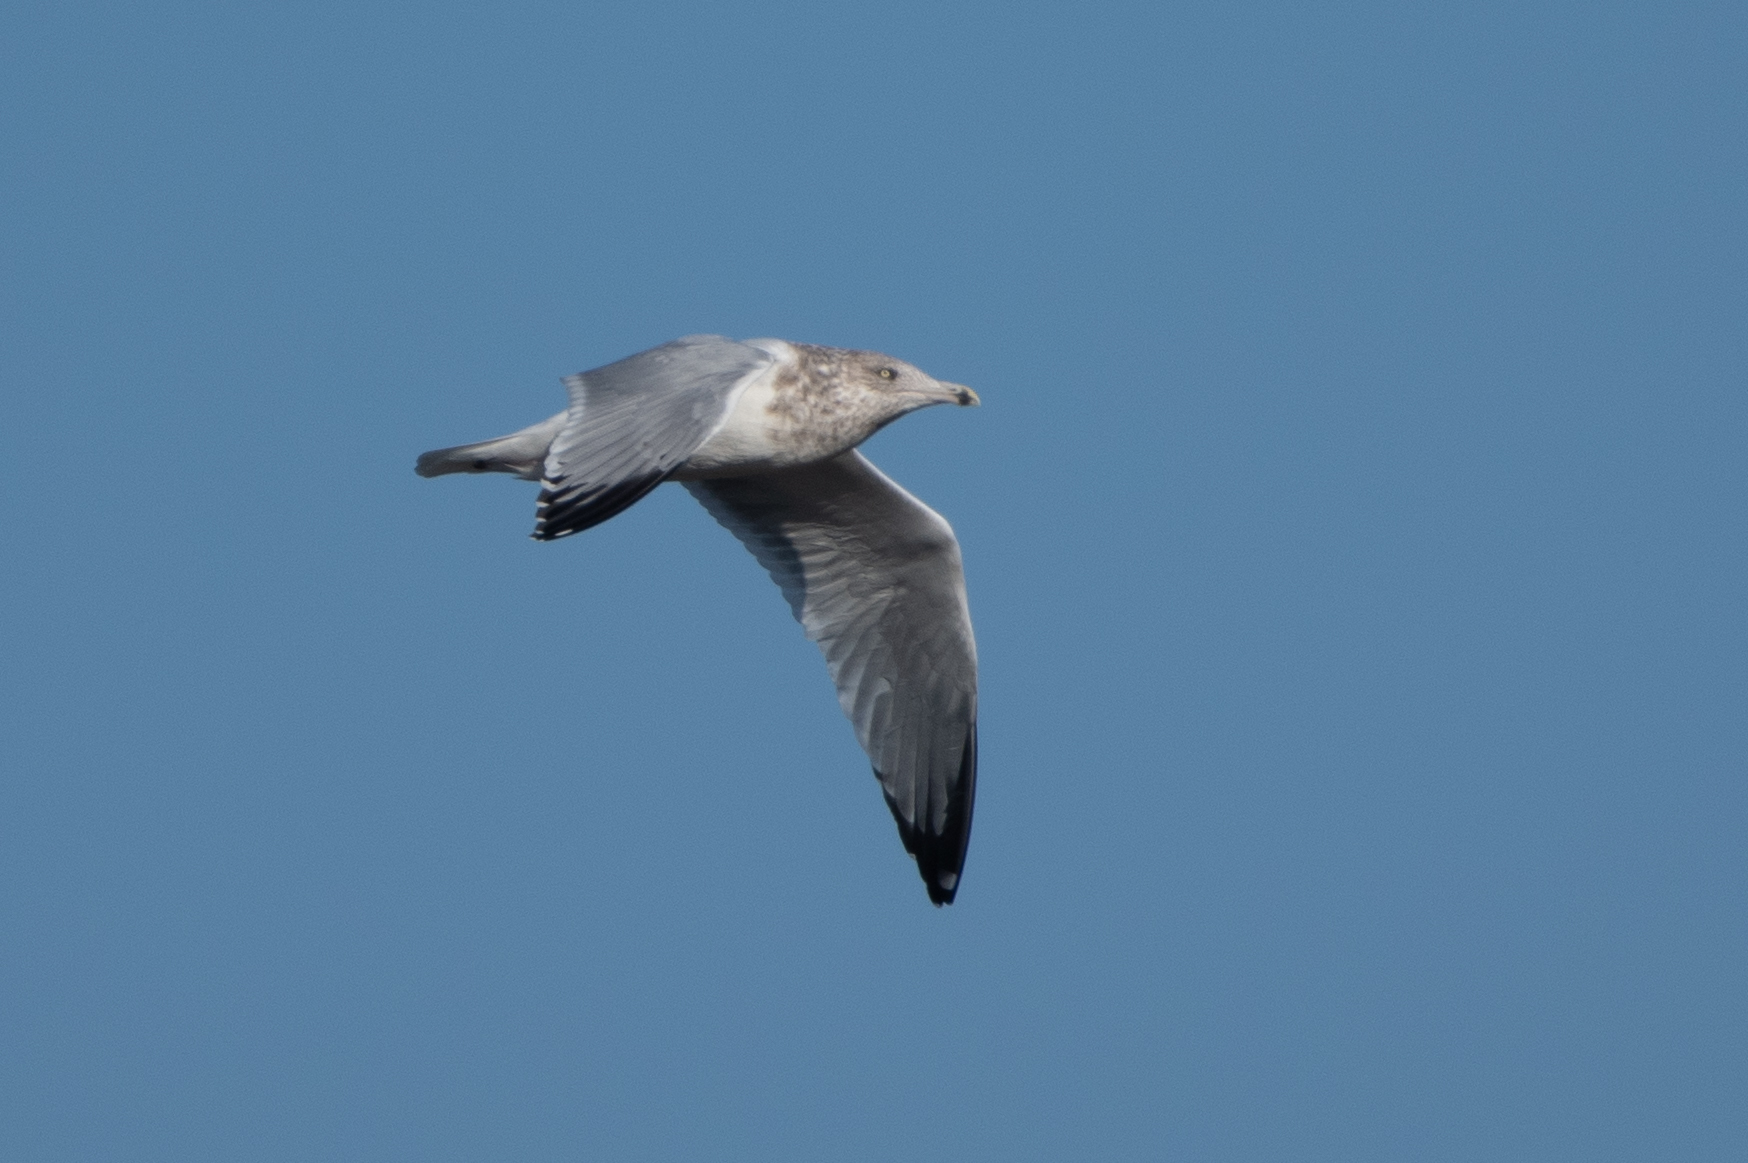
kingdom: Animalia
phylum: Chordata
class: Aves
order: Charadriiformes
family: Laridae
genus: Larus
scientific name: Larus argentatus
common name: Herring gull
